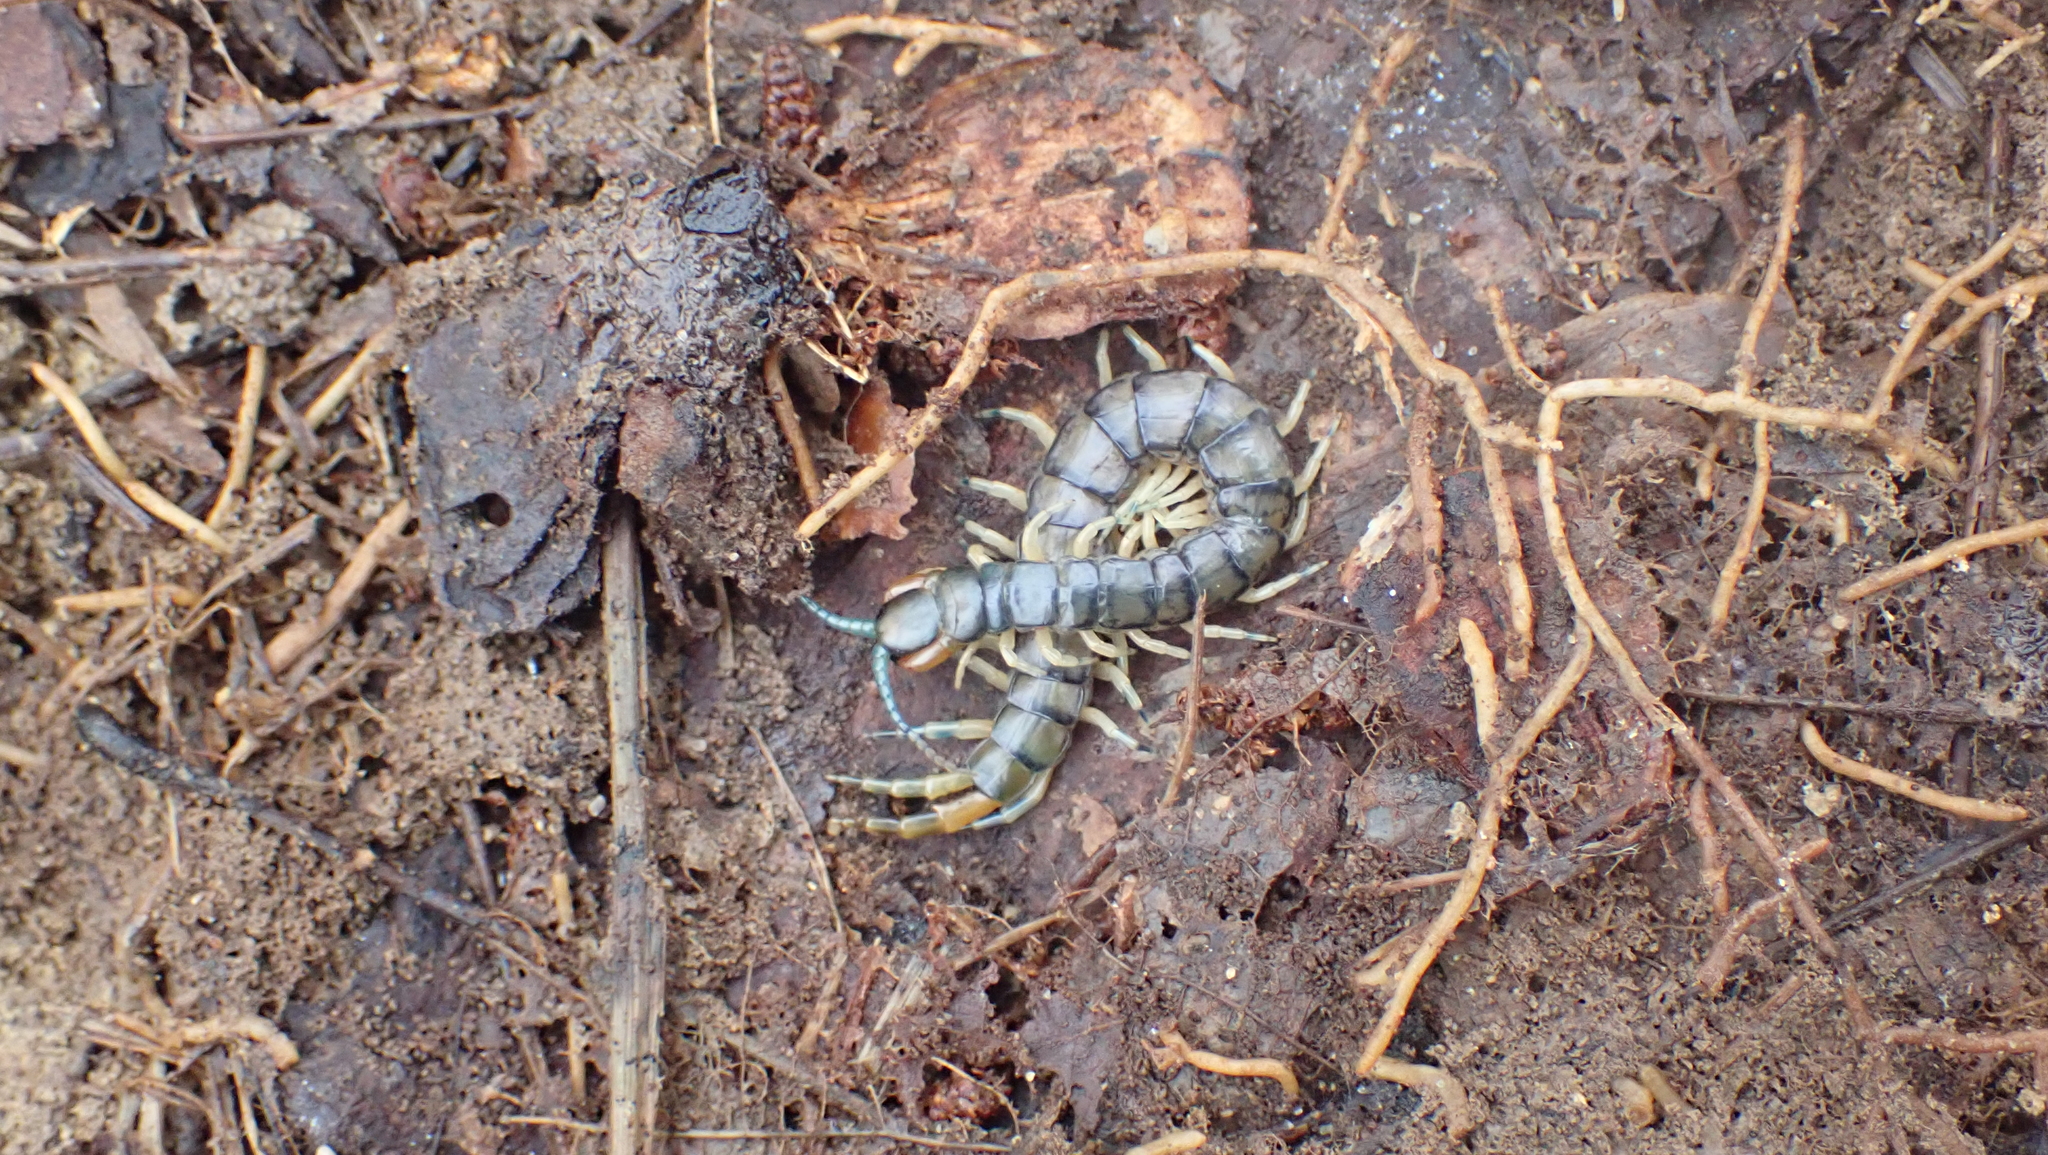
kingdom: Animalia
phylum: Arthropoda
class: Chilopoda
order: Scolopendromorpha
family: Scolopendridae
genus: Hemiscolopendra
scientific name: Hemiscolopendra marginata
